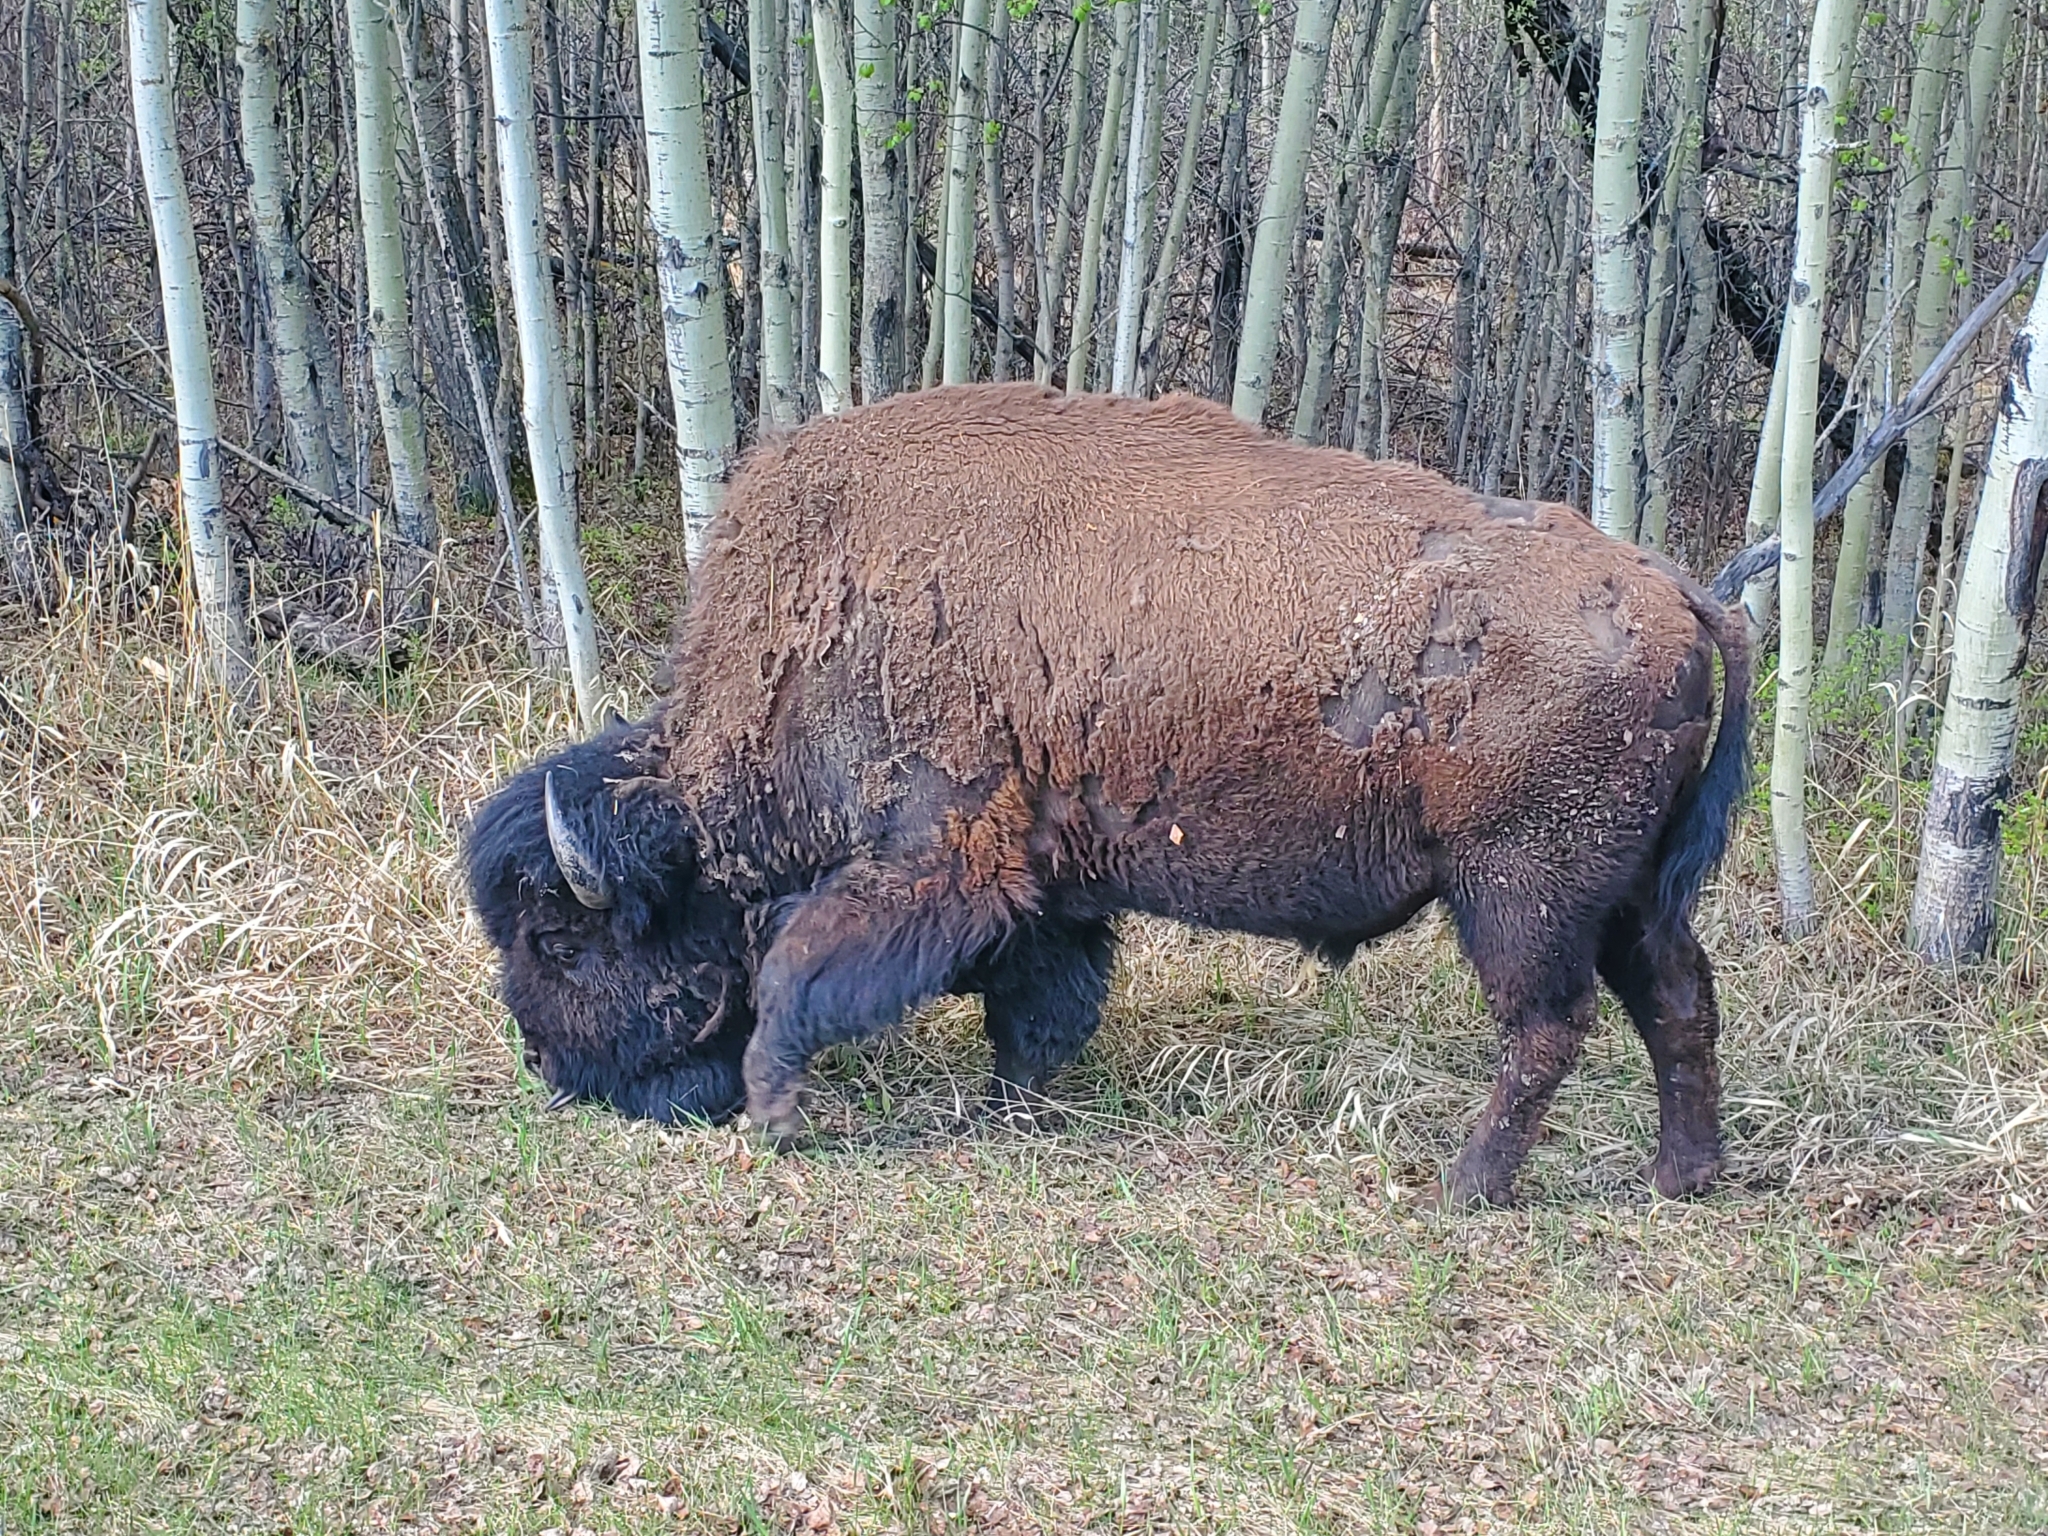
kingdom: Animalia
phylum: Chordata
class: Mammalia
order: Artiodactyla
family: Bovidae
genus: Bison
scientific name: Bison bison
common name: American bison
